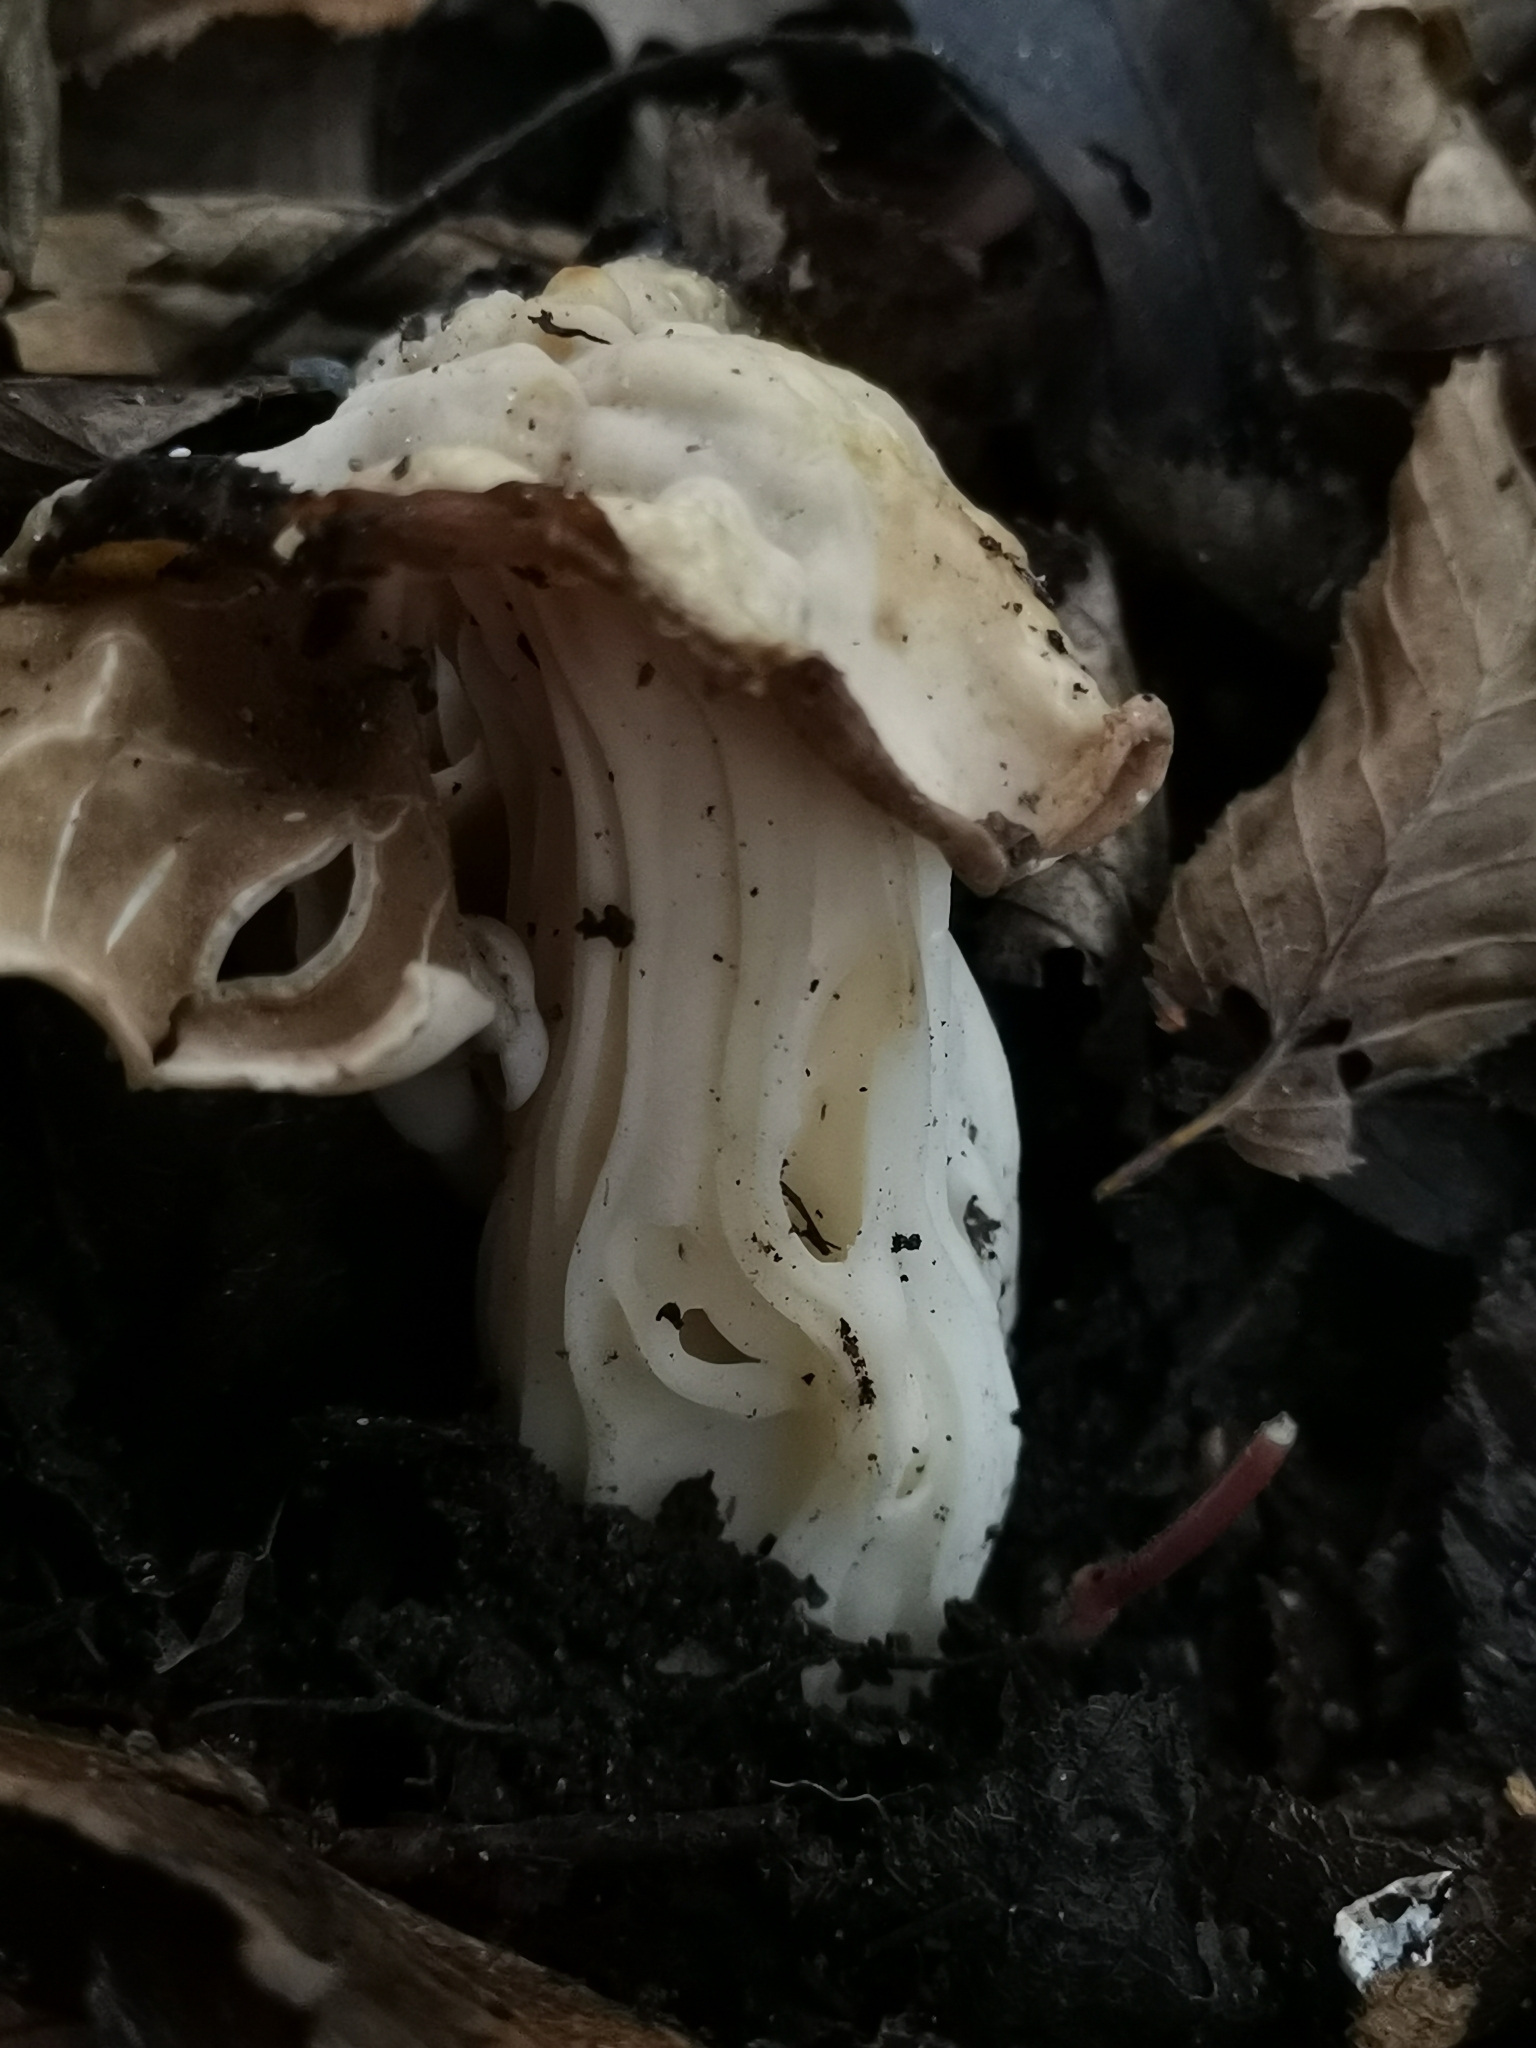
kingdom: Fungi
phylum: Ascomycota
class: Pezizomycetes
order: Pezizales
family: Helvellaceae
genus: Helvella
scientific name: Helvella crispa
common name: White saddle
